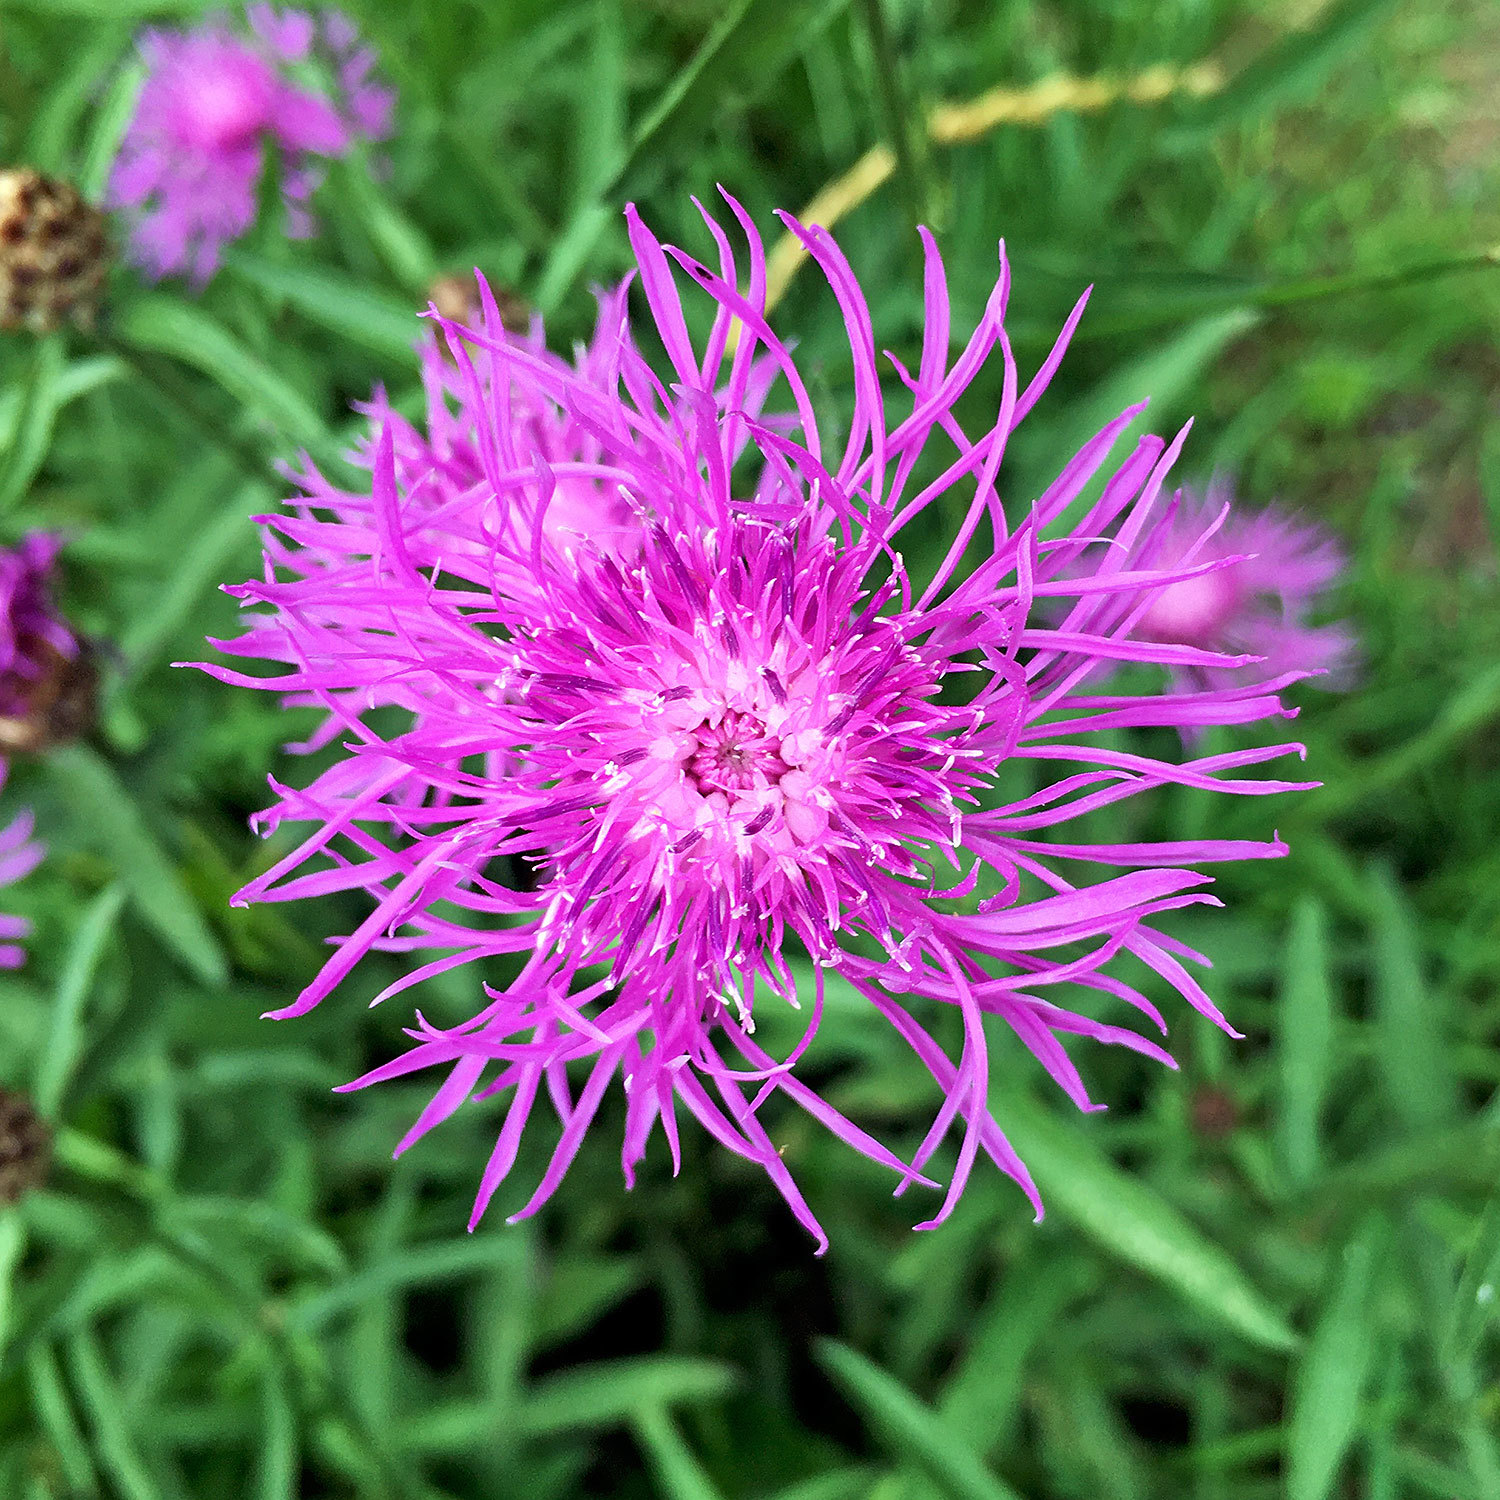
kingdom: Plantae
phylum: Tracheophyta
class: Magnoliopsida
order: Asterales
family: Asteraceae
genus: Centaurea
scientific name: Centaurea jacea
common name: Brown knapweed
